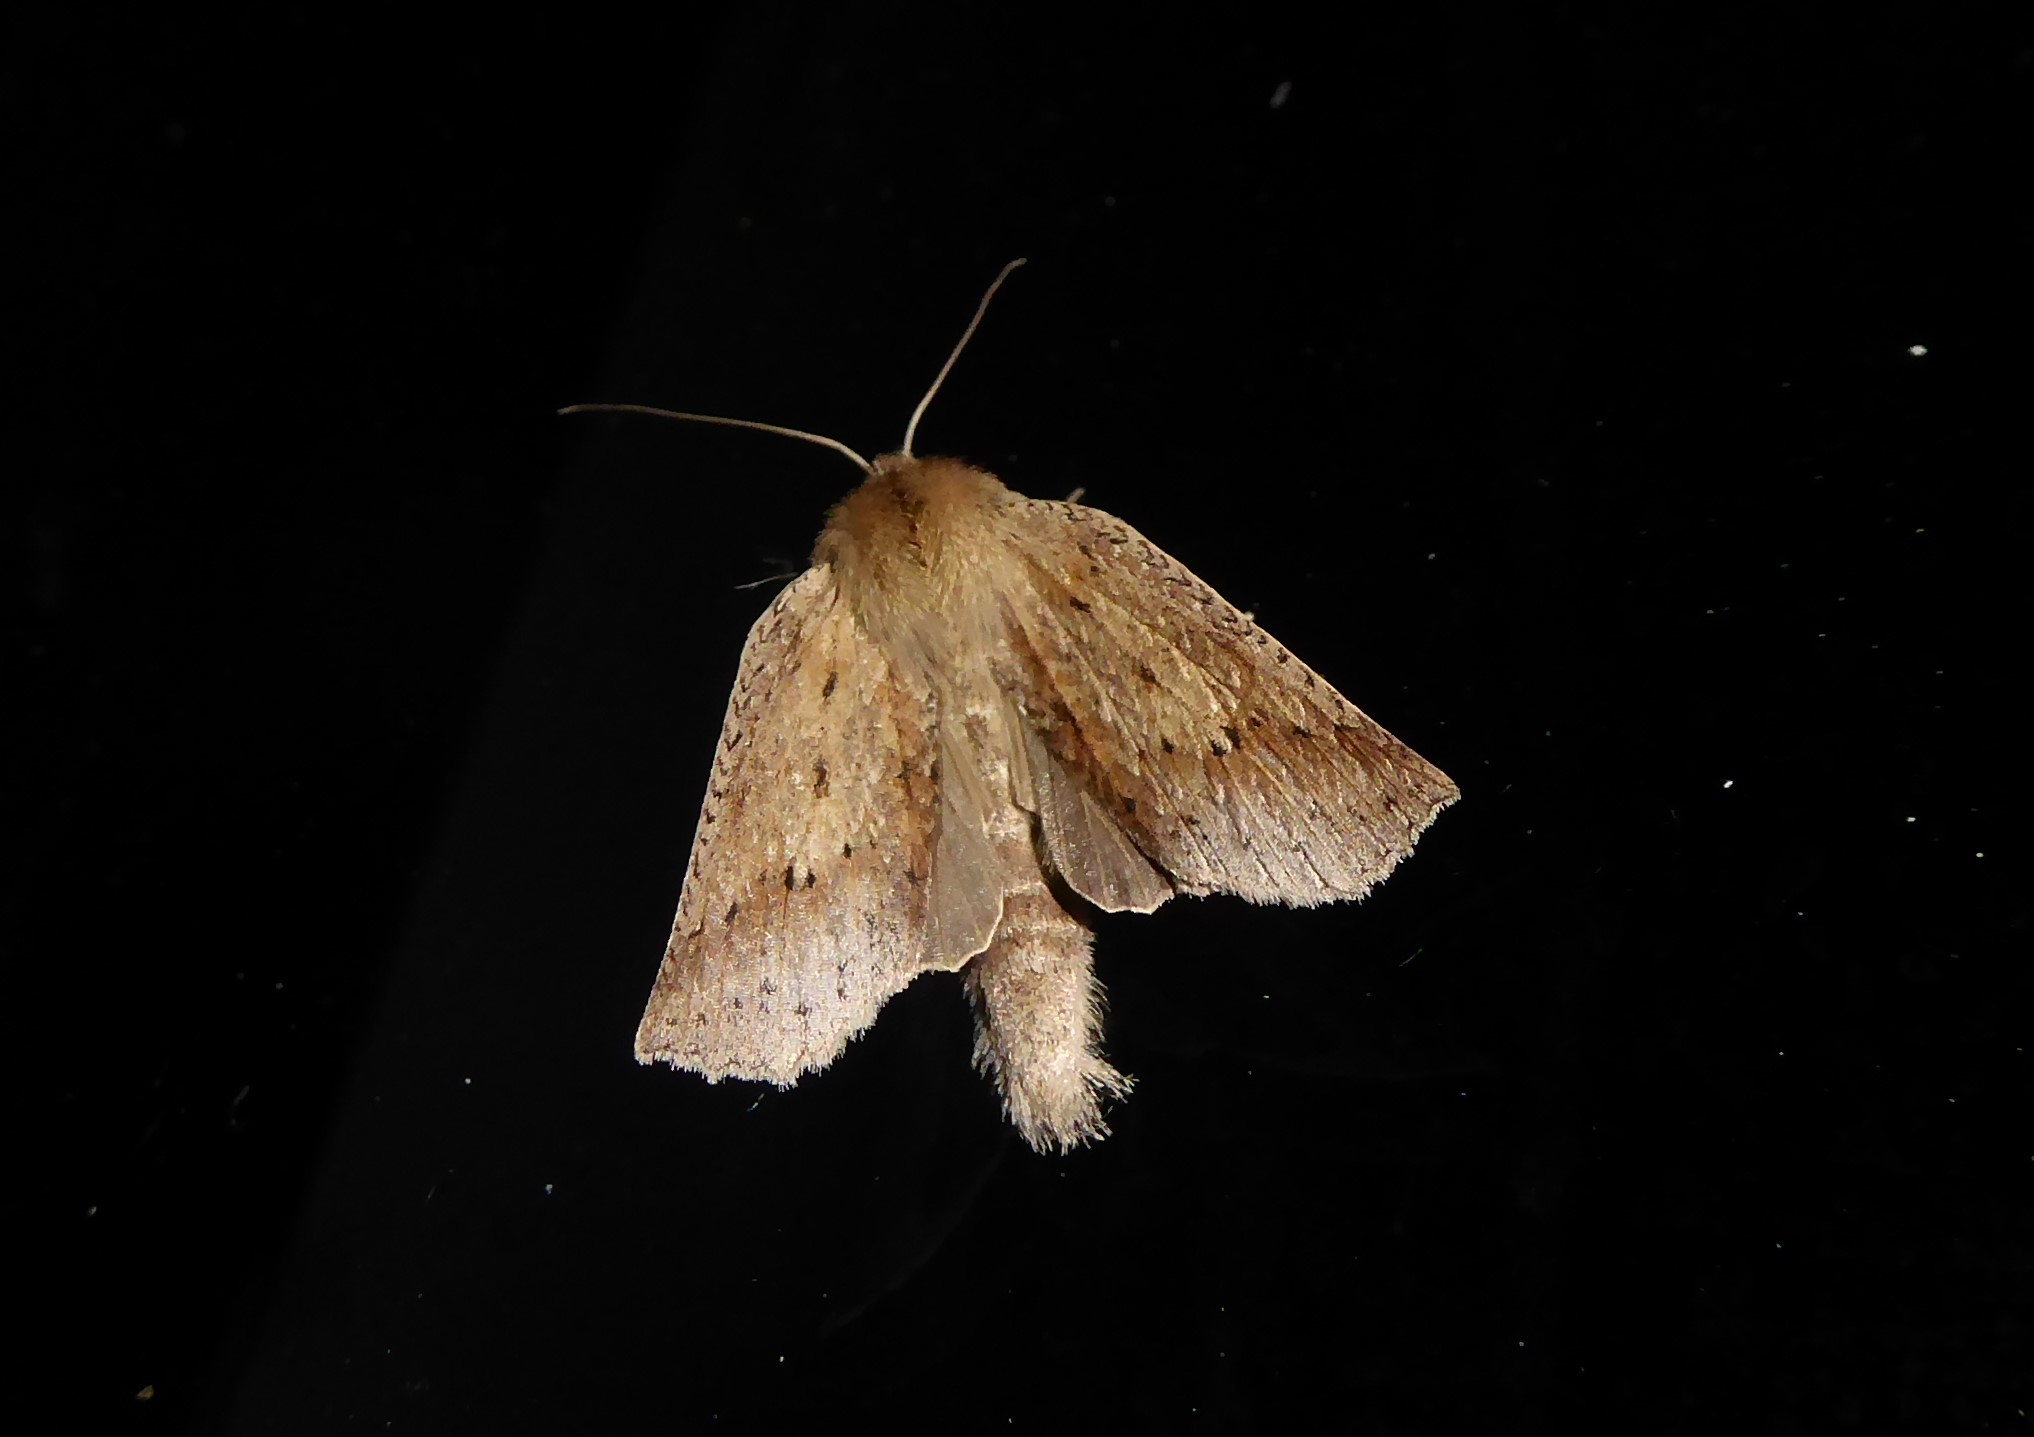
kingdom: Animalia
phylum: Arthropoda
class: Insecta
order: Lepidoptera
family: Geometridae
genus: Declana
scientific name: Declana leptomera
